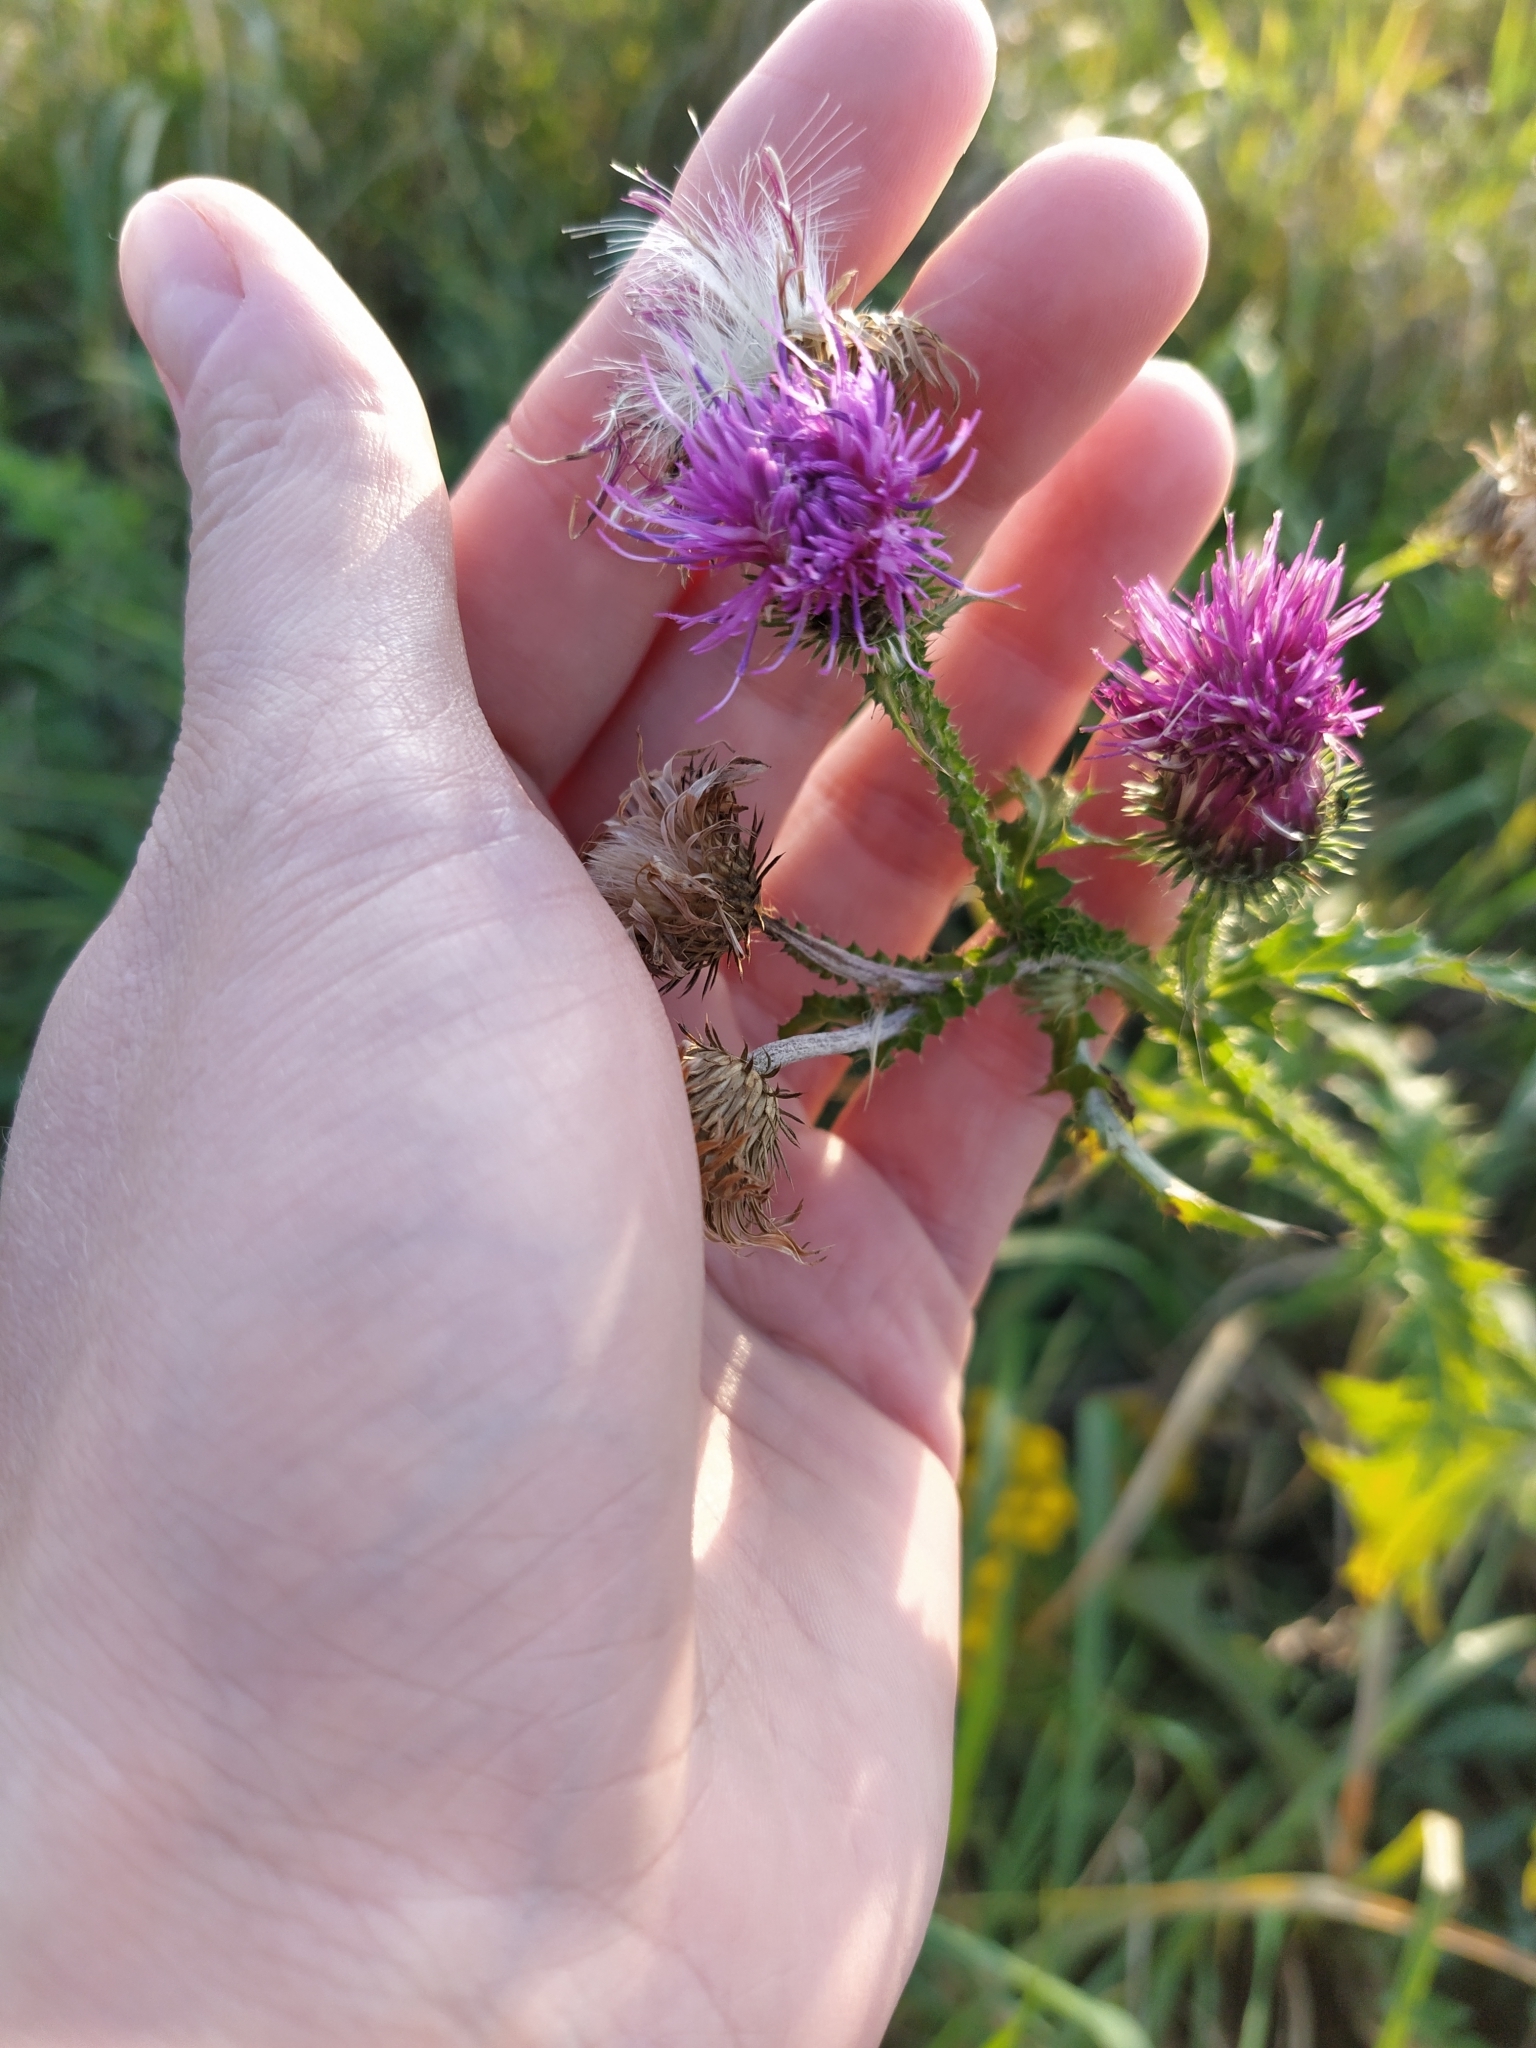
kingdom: Plantae
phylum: Tracheophyta
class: Magnoliopsida
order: Asterales
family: Asteraceae
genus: Carduus
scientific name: Carduus crispus
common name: Welted thistle
